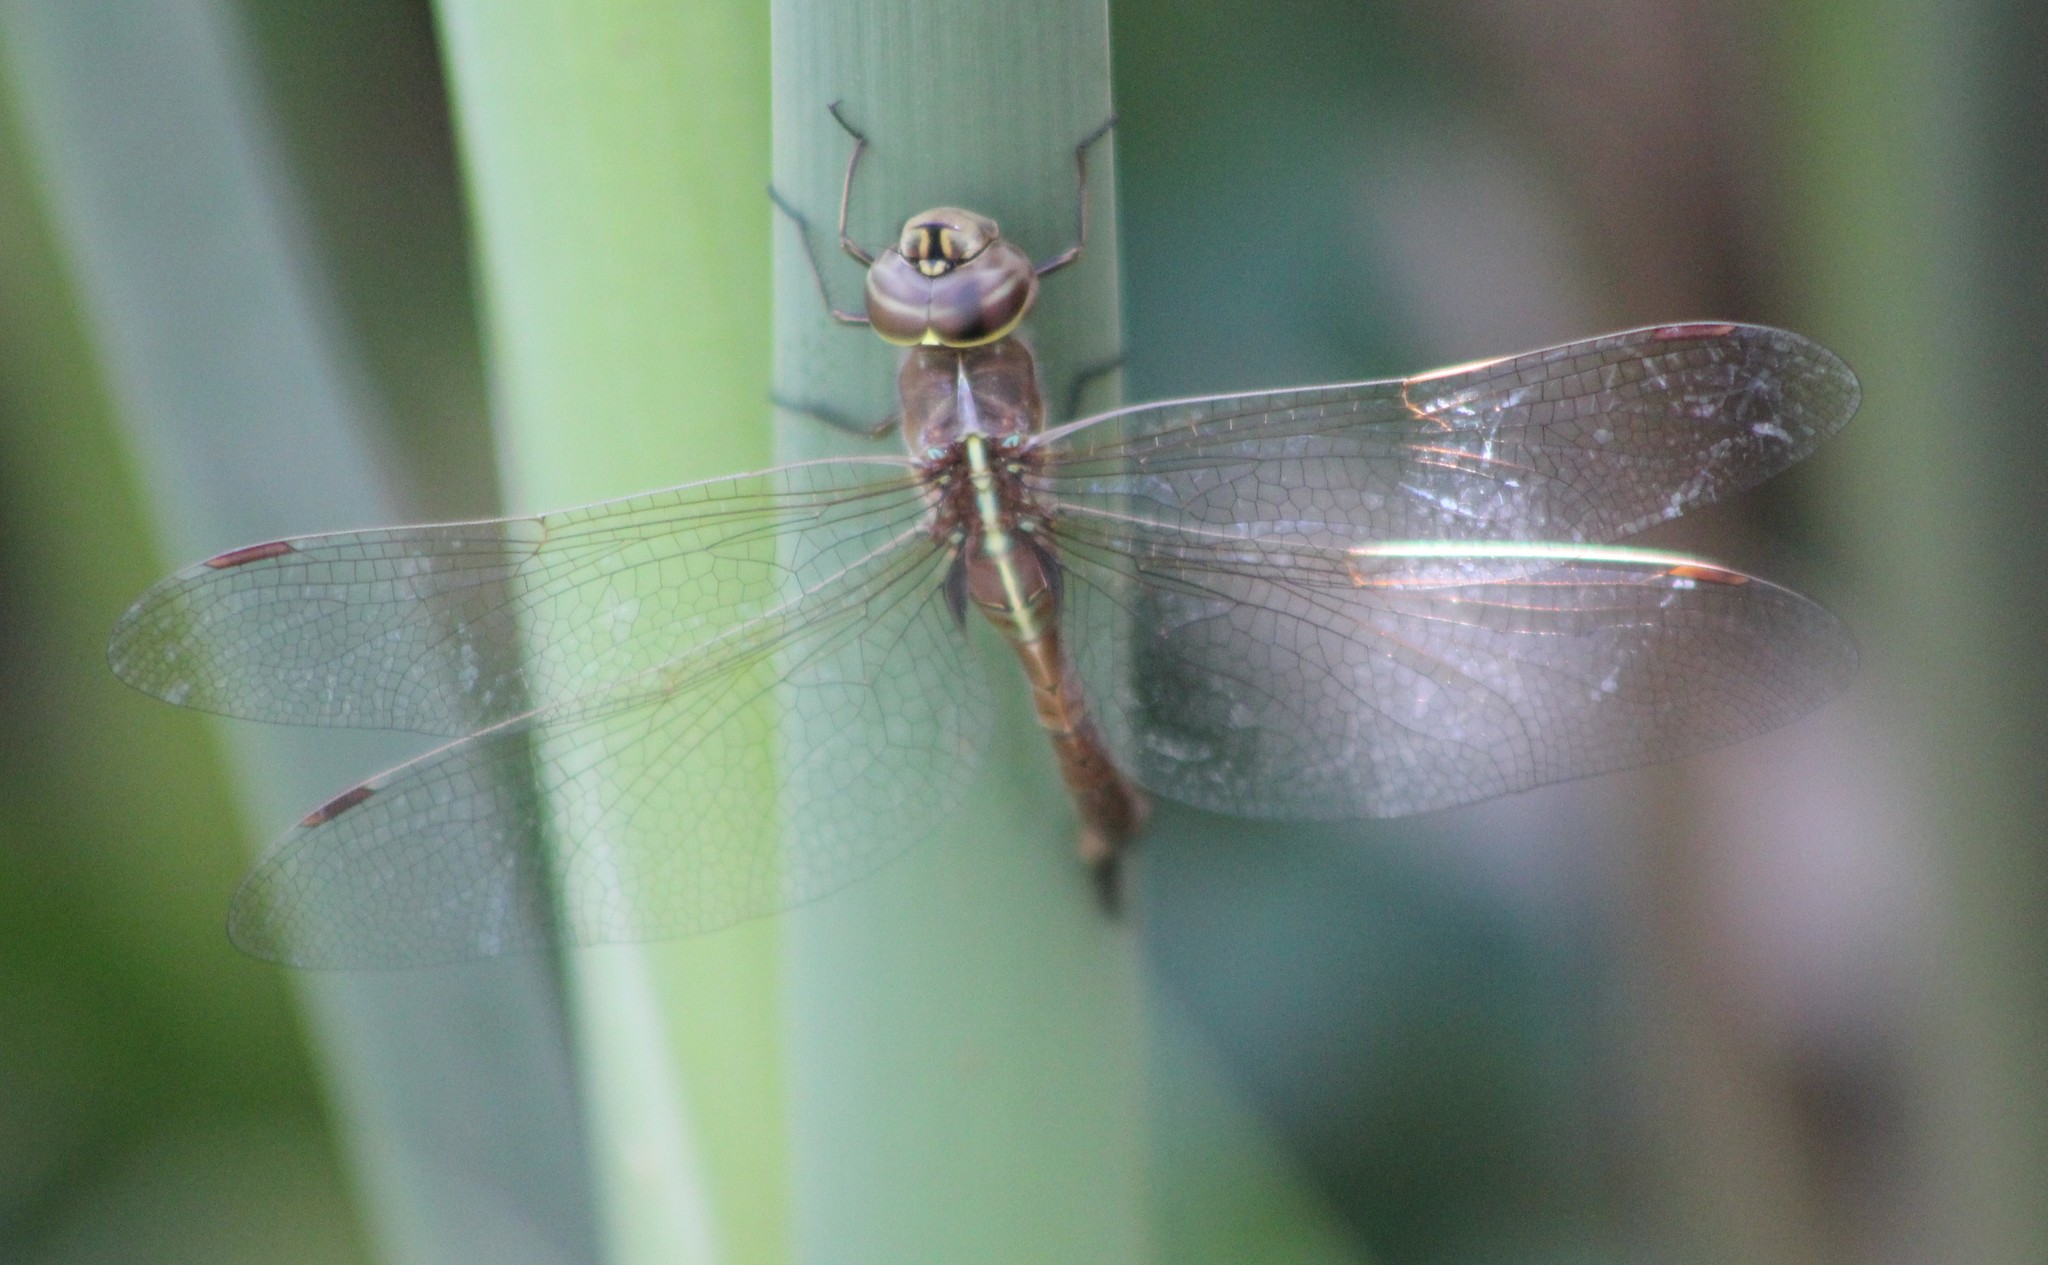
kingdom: Animalia
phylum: Arthropoda
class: Insecta
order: Odonata
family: Aeshnidae
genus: Rhionaeschna
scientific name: Rhionaeschna bonariensis
